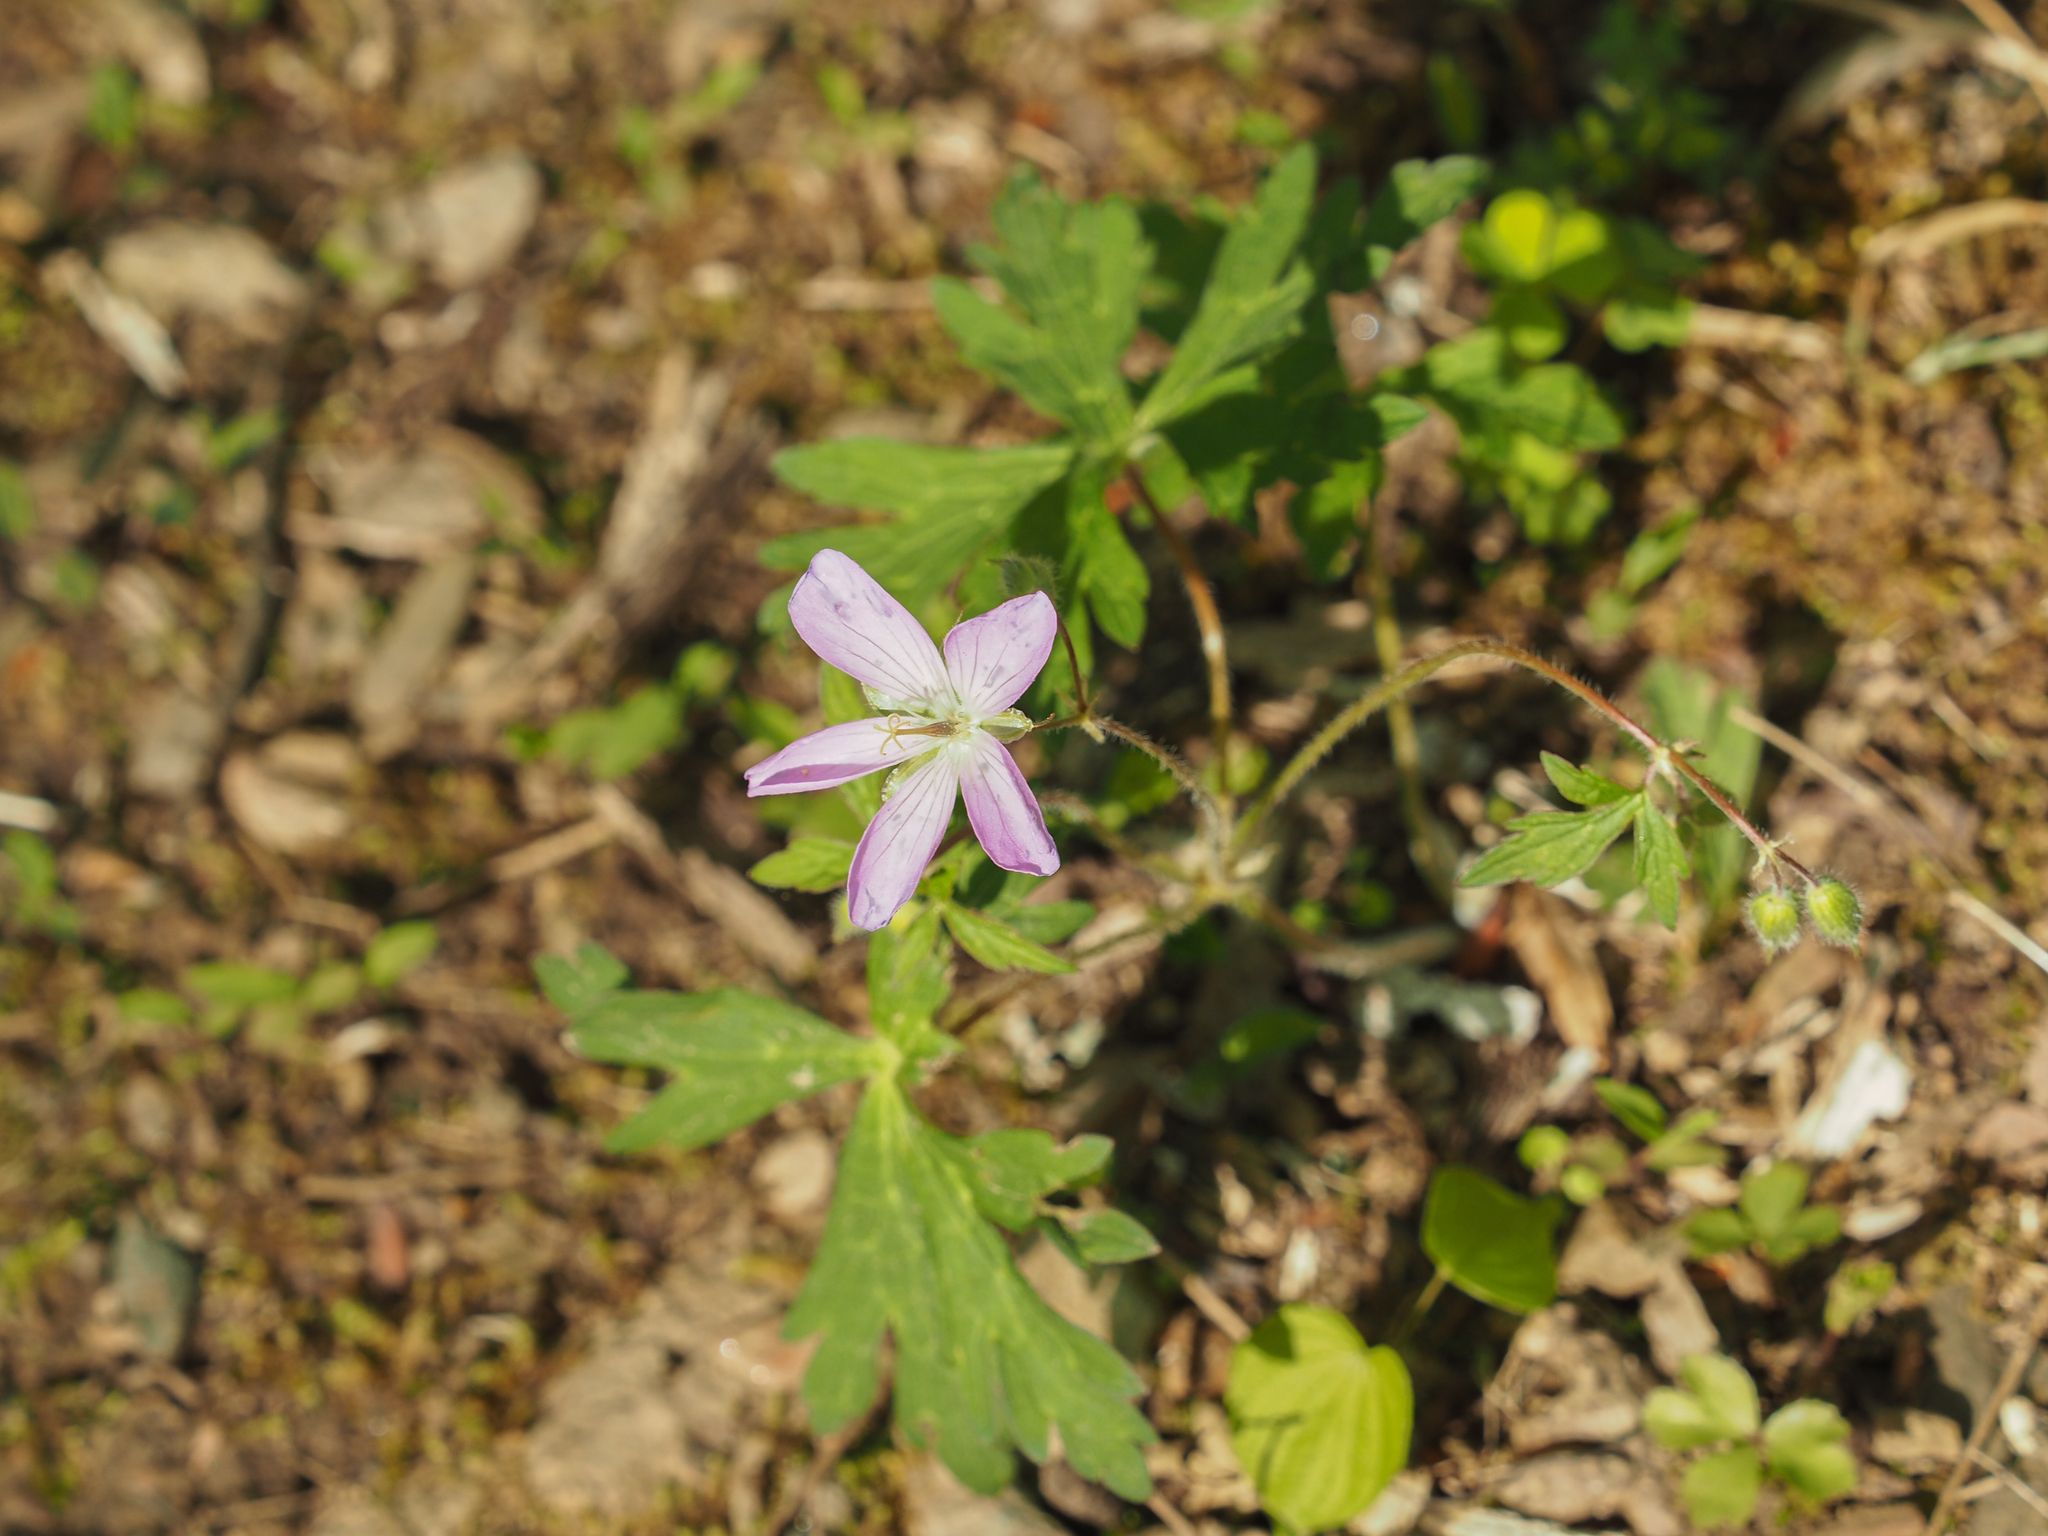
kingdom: Plantae
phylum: Tracheophyta
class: Magnoliopsida
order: Geraniales
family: Geraniaceae
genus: Geranium
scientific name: Geranium maculatum
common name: Spotted geranium
